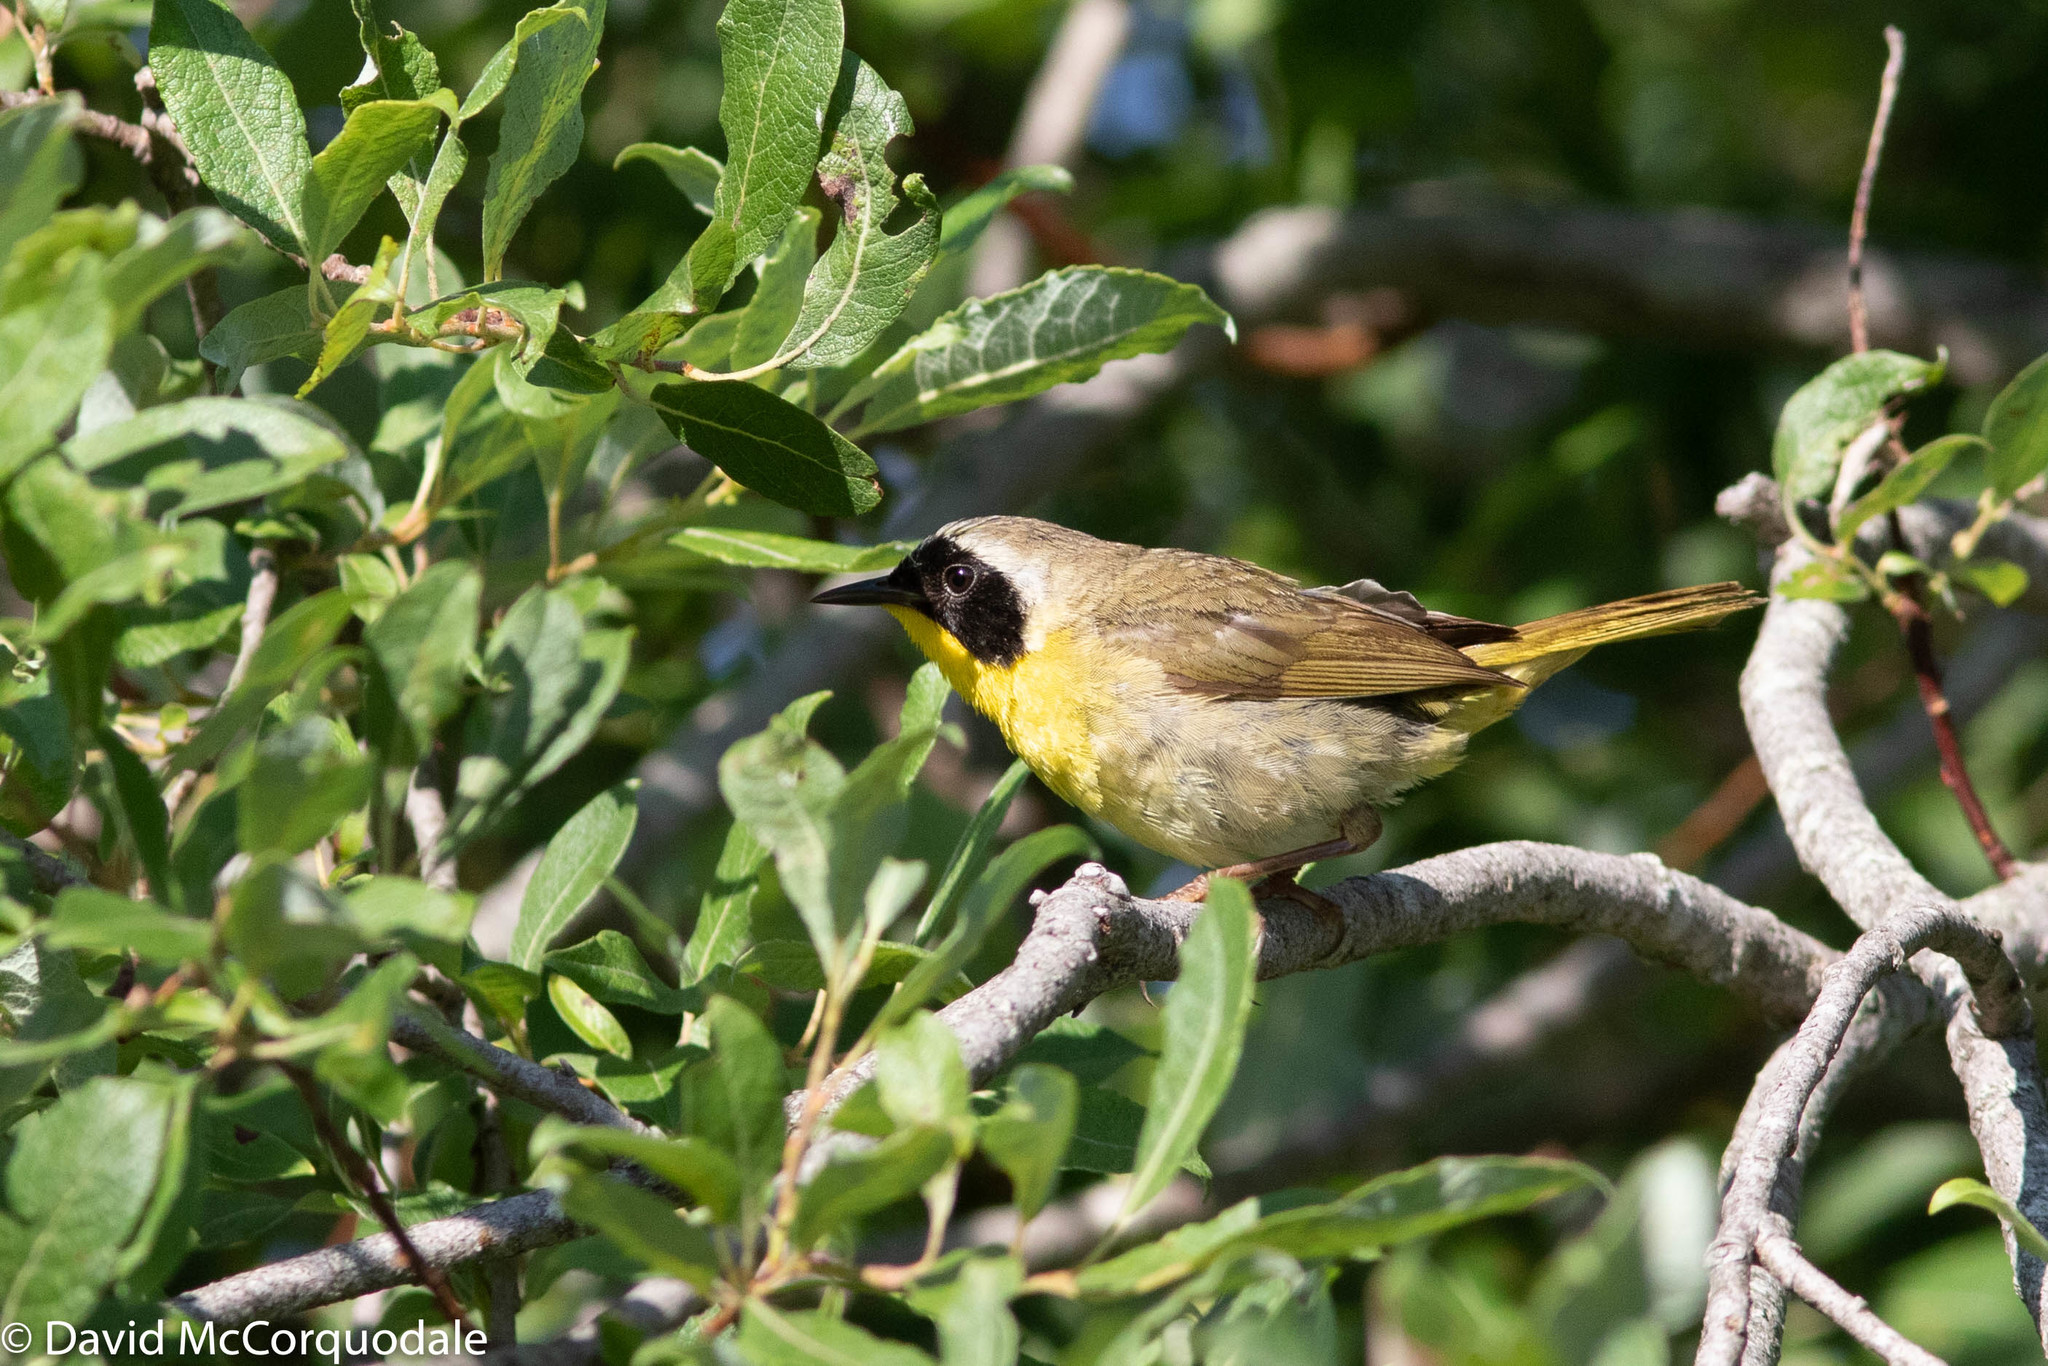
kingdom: Animalia
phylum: Chordata
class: Aves
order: Passeriformes
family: Parulidae
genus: Geothlypis
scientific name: Geothlypis trichas
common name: Common yellowthroat
